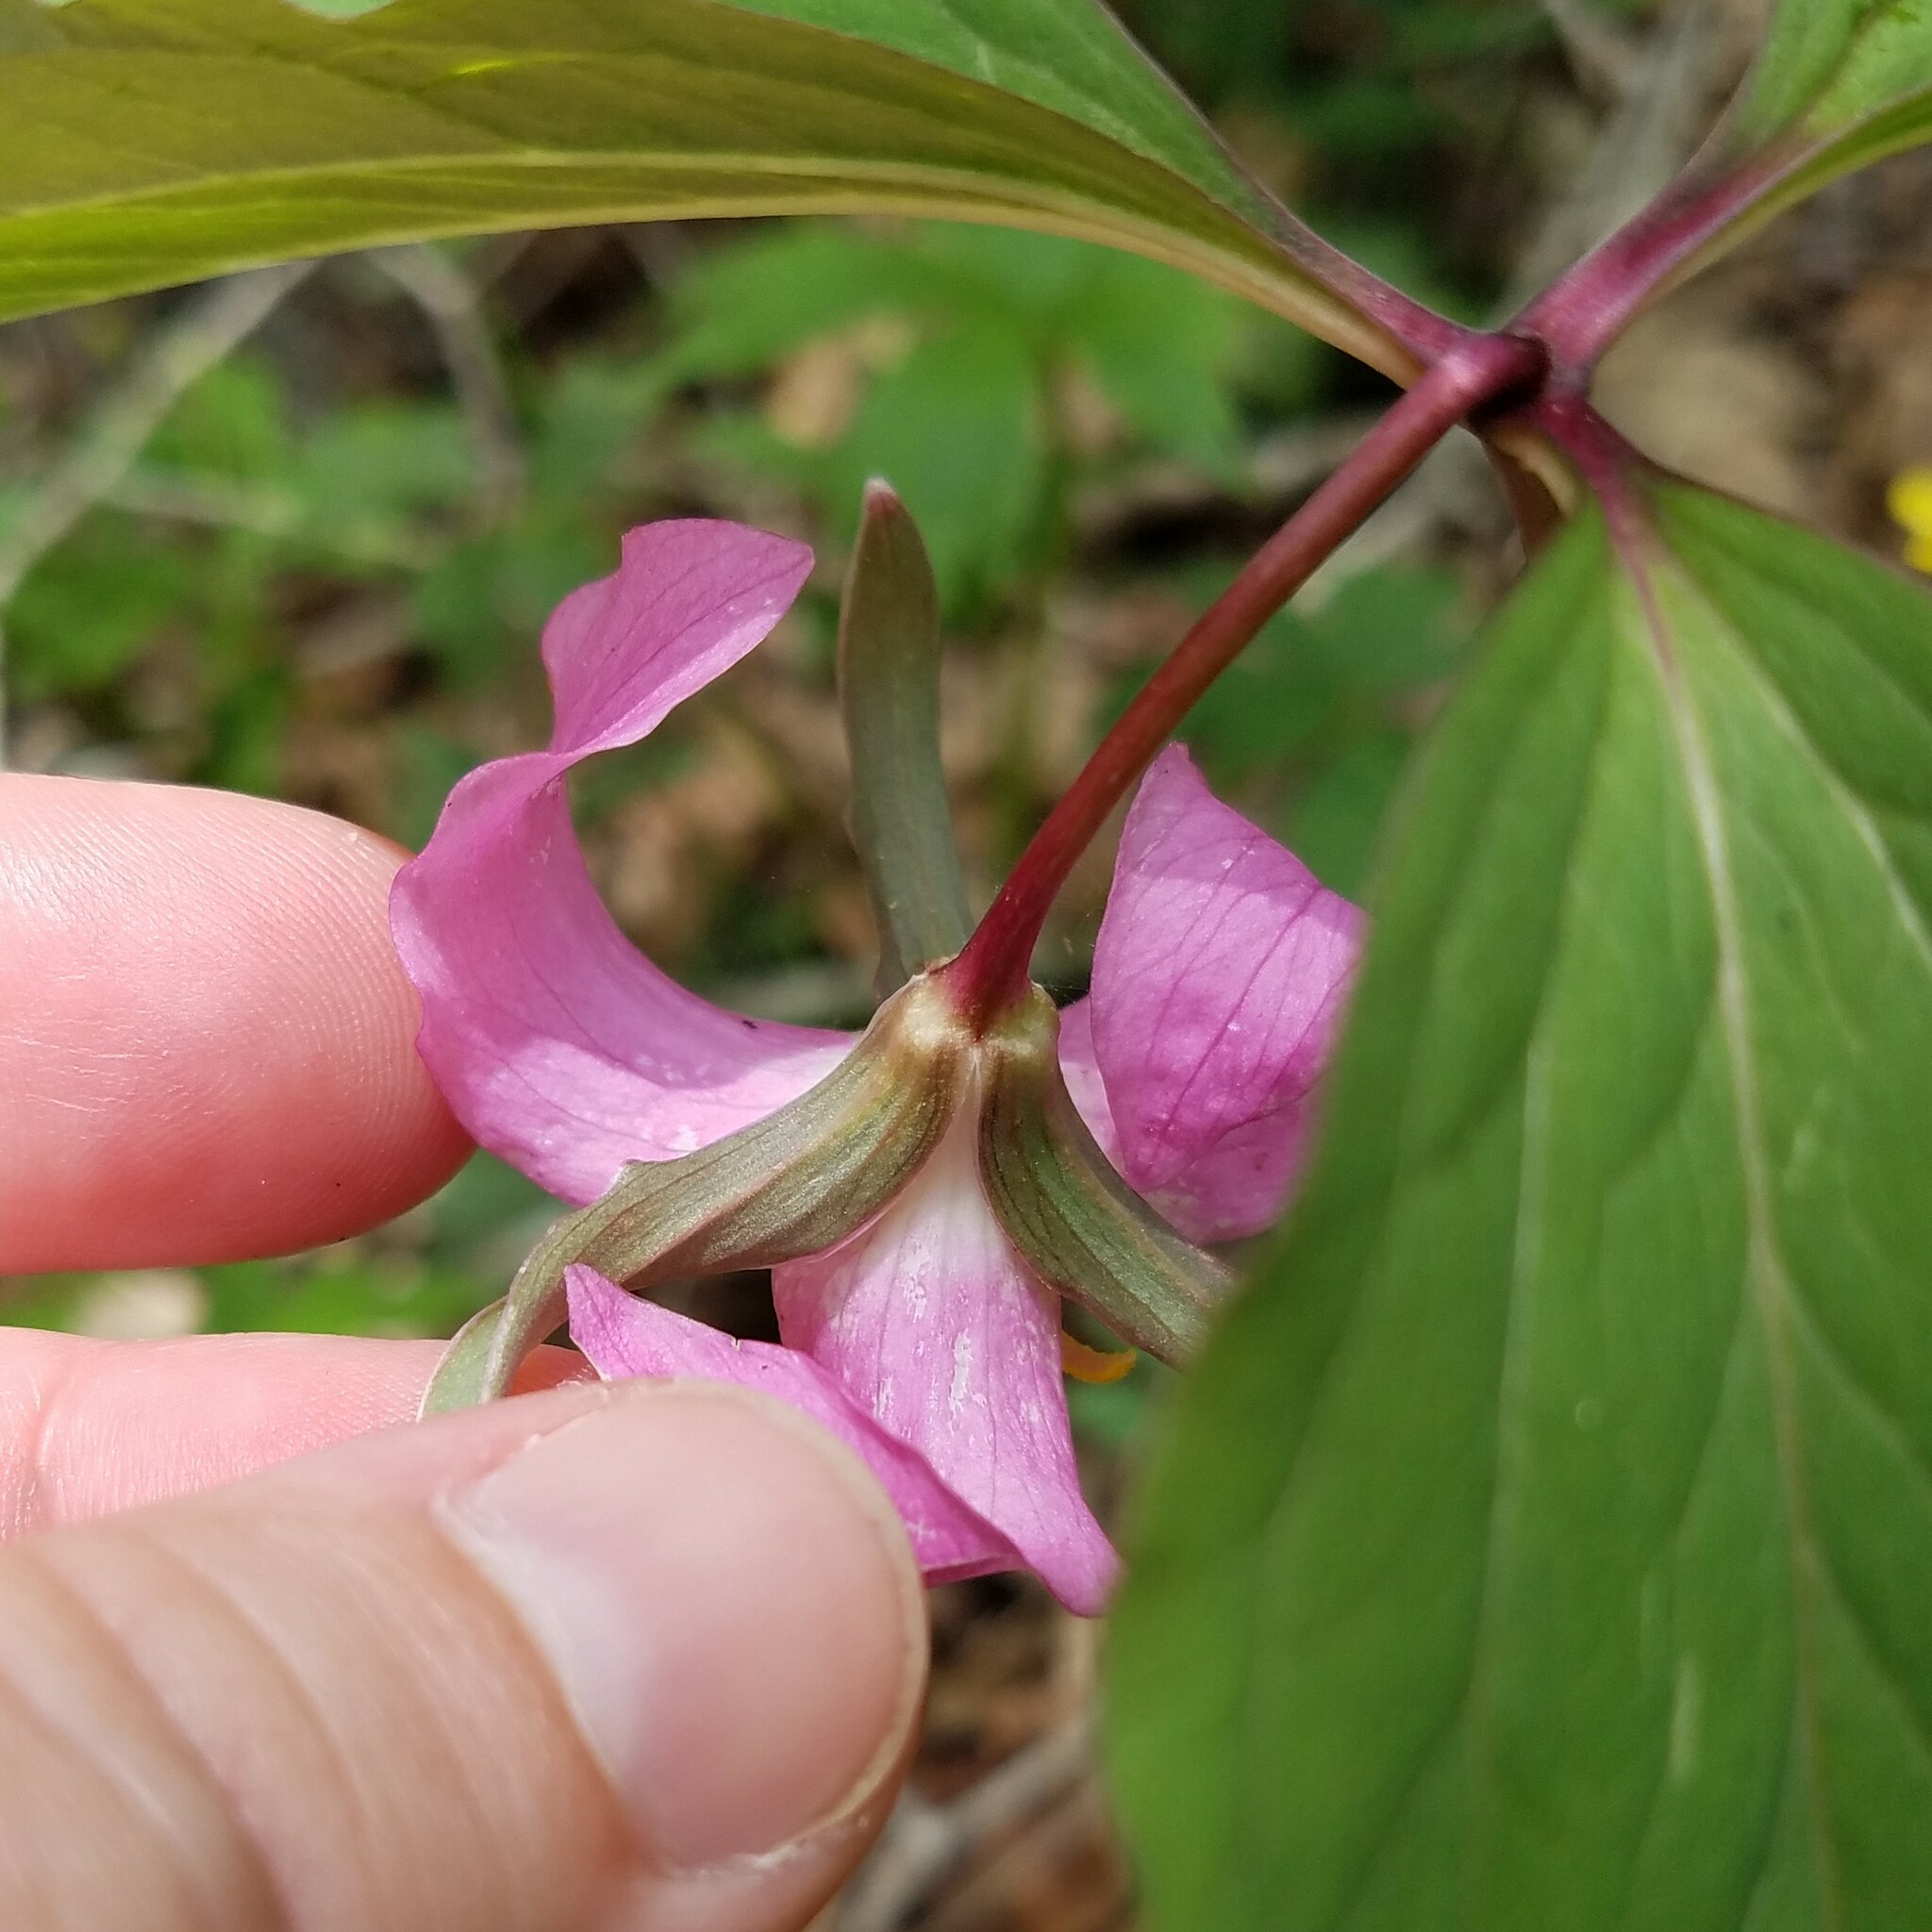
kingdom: Plantae
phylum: Tracheophyta
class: Liliopsida
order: Liliales
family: Melanthiaceae
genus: Trillium
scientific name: Trillium catesbaei
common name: Bashful trillium
